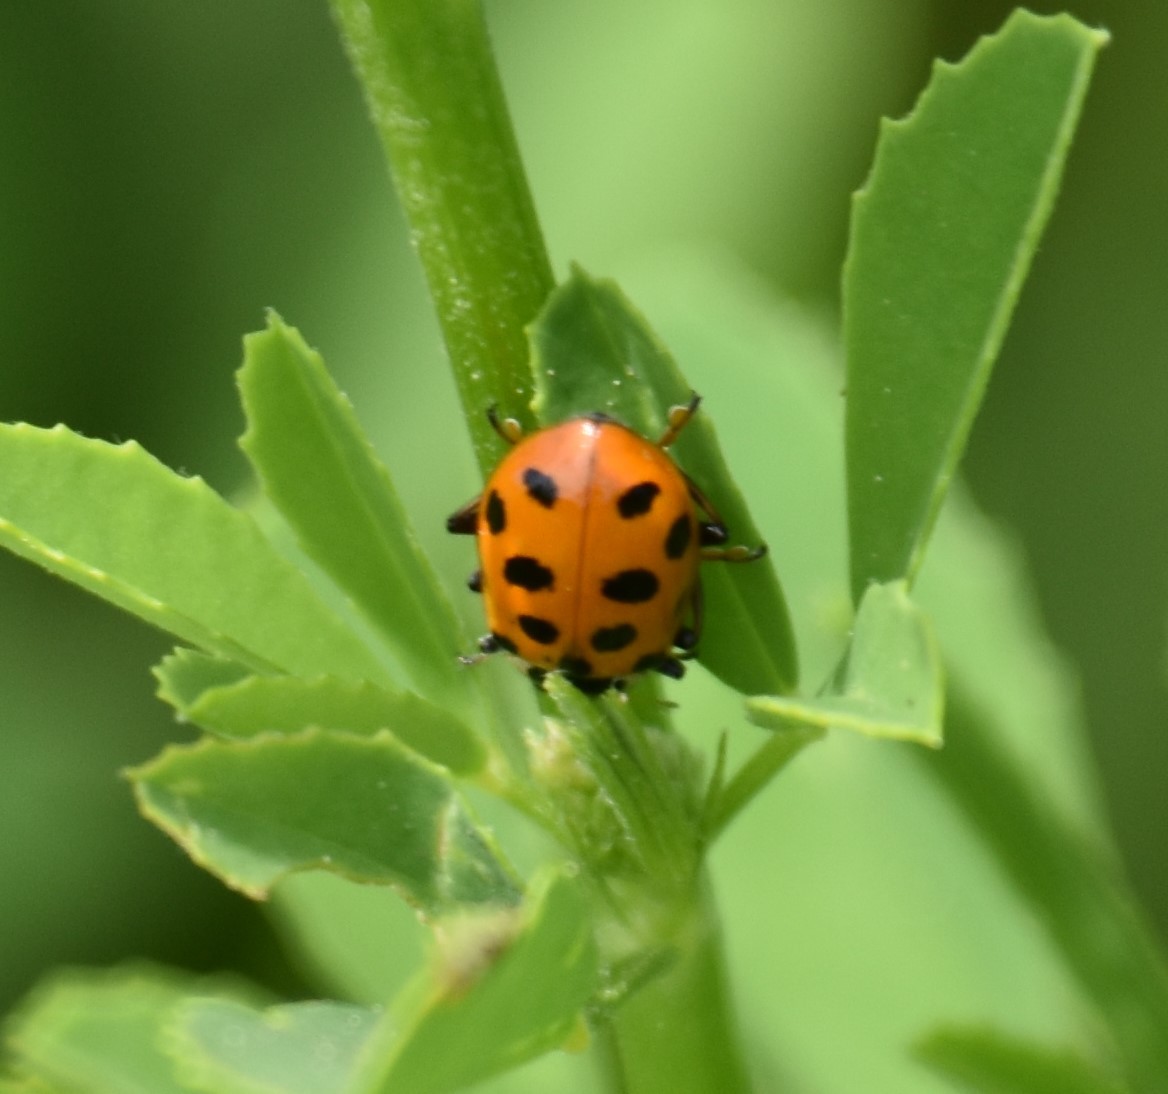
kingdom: Animalia
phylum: Arthropoda
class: Insecta
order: Coleoptera
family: Coccinellidae
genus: Hippodamia
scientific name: Hippodamia tredecimpunctata
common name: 13-spot ladybird
